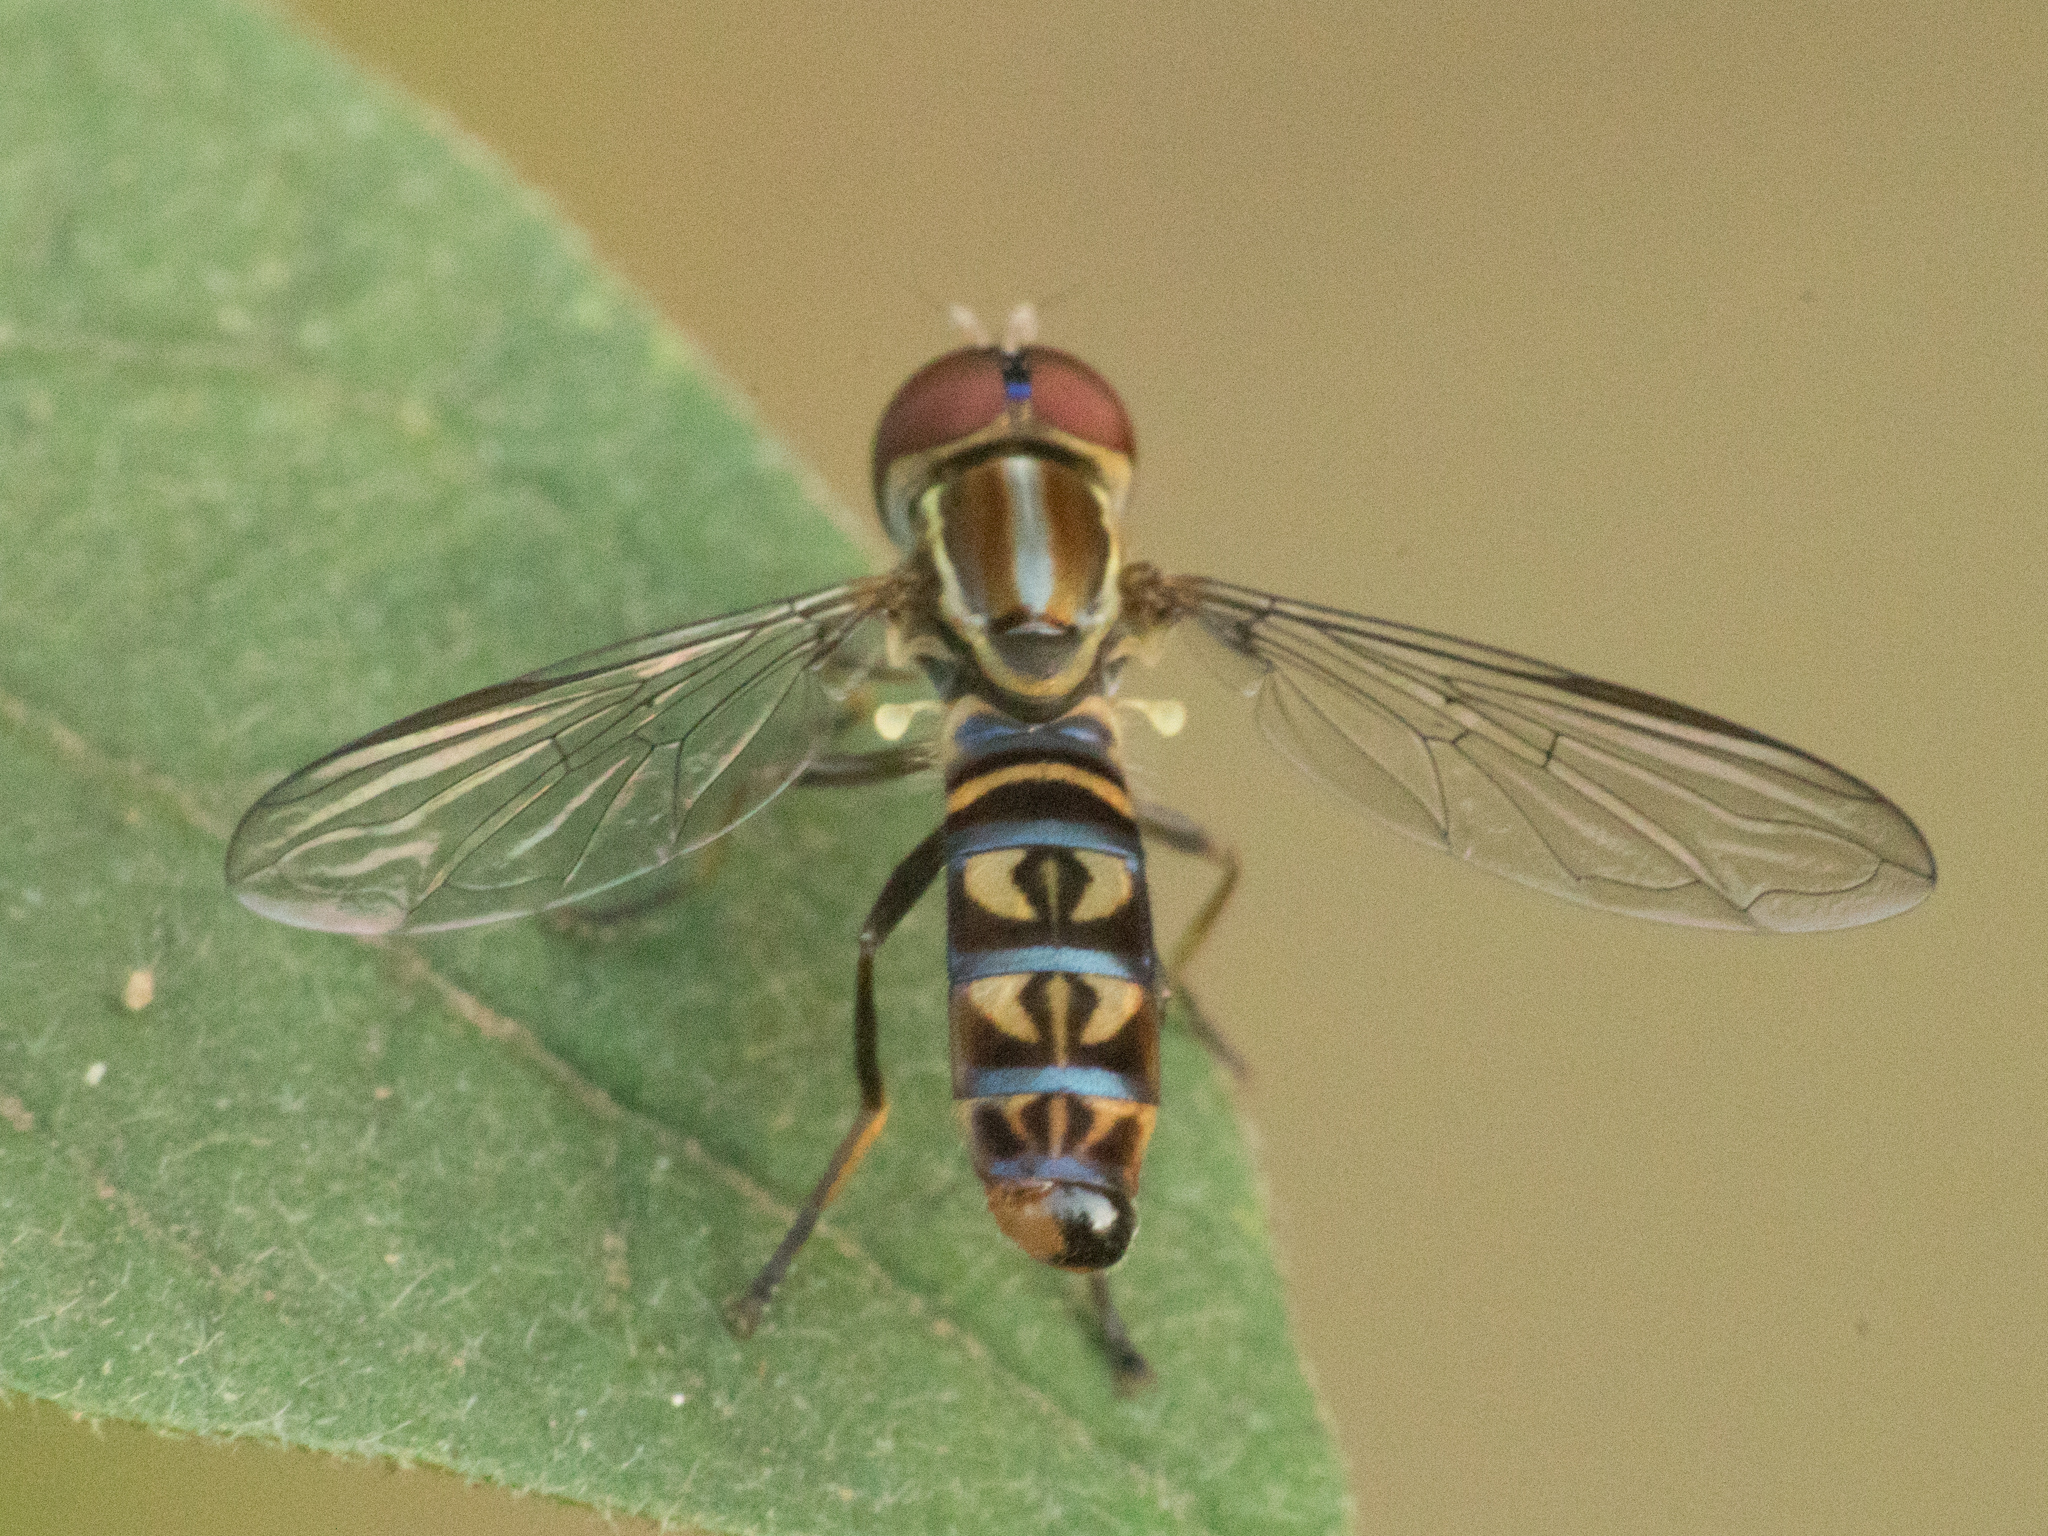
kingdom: Animalia
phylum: Arthropoda
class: Insecta
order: Diptera
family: Syrphidae
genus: Toxomerus
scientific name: Toxomerus tibicen
